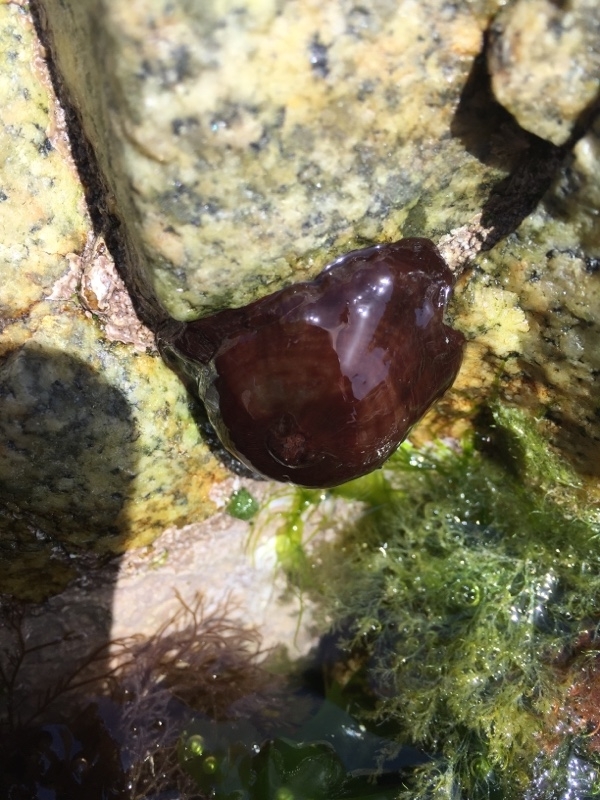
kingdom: Animalia
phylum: Cnidaria
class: Anthozoa
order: Actiniaria
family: Actiniidae
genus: Actinia
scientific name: Actinia equina
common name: Beadlet anemone
